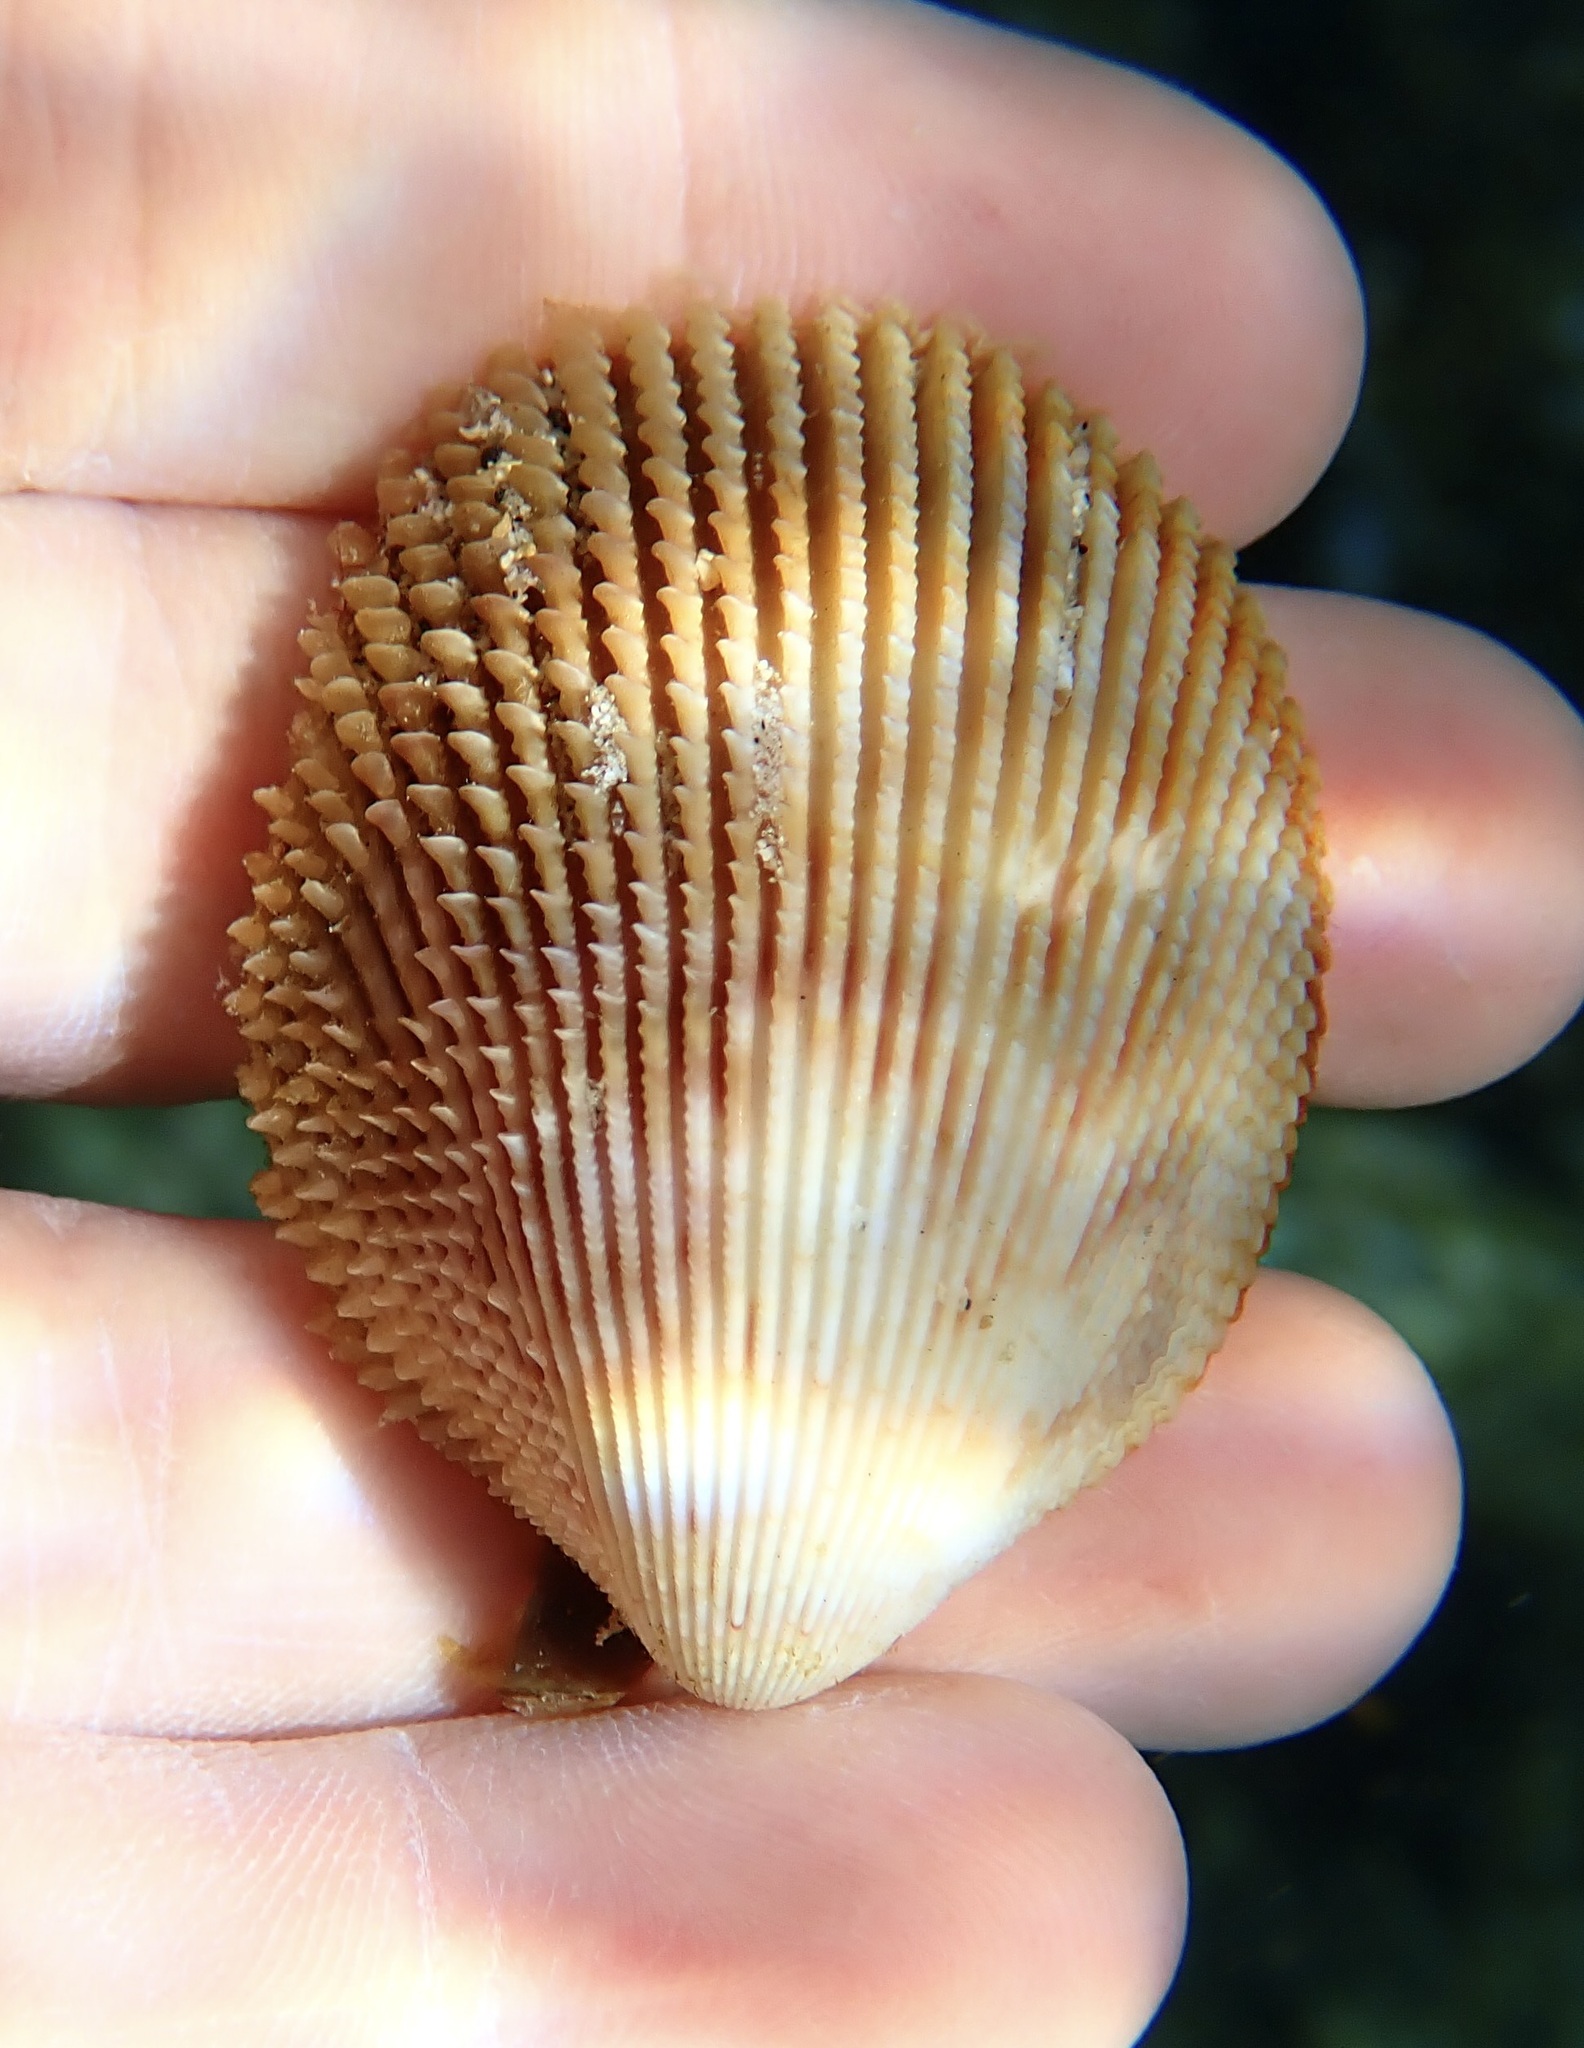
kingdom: Animalia
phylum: Mollusca
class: Bivalvia
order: Cardiida
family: Cardiidae
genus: Vasticardium
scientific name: Vasticardium hawaiensis
